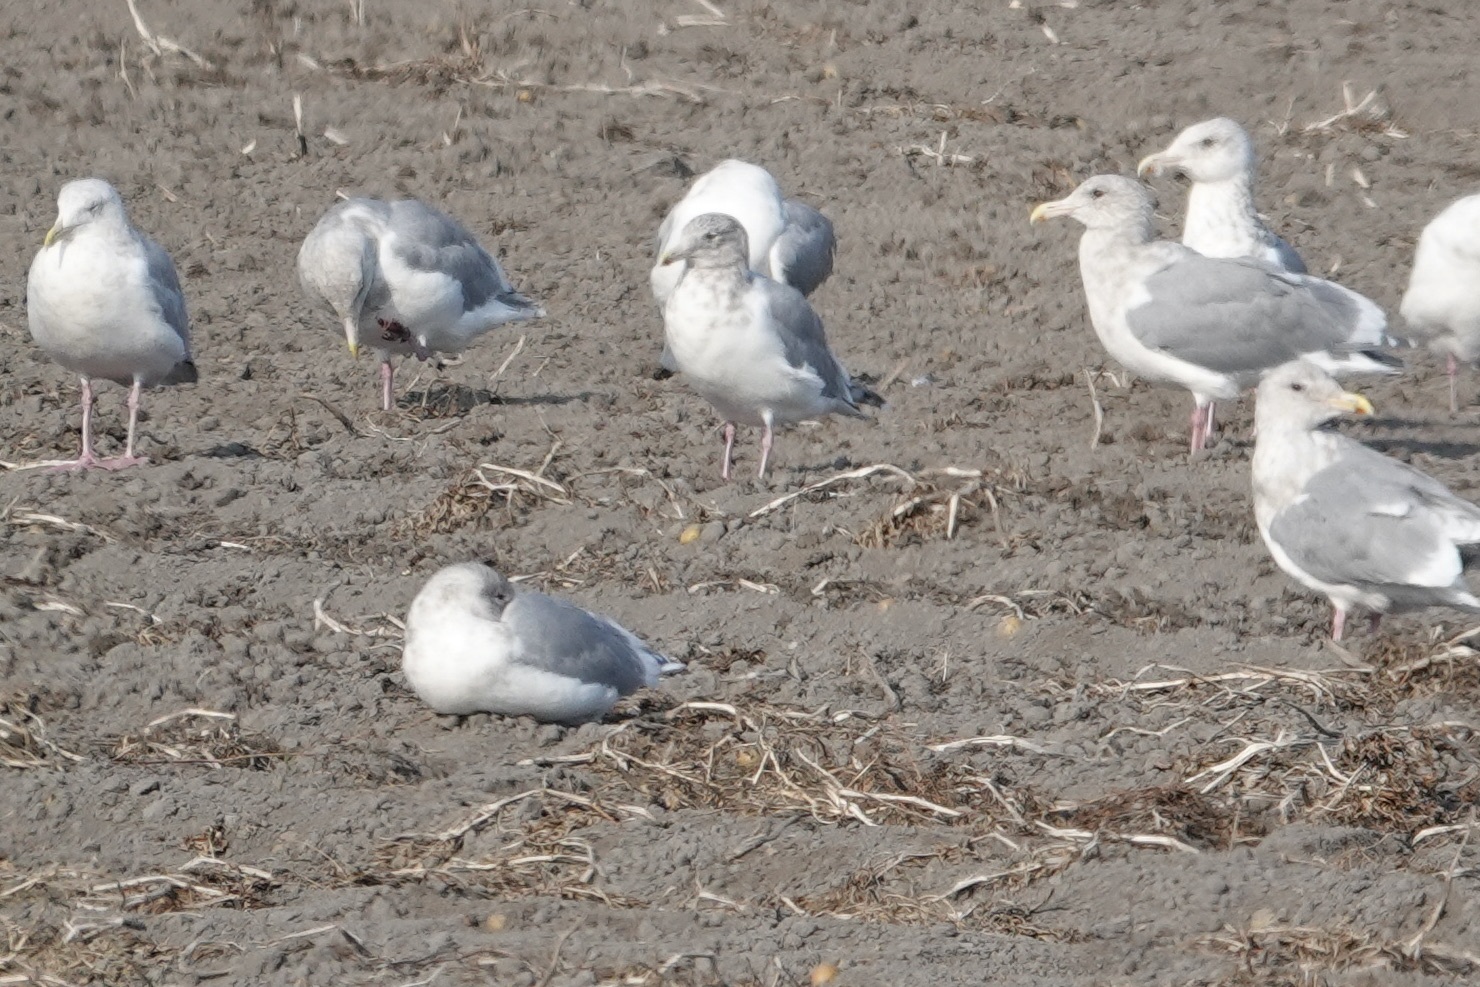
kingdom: Animalia
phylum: Chordata
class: Aves
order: Charadriiformes
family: Laridae
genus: Larus
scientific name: Larus glaucescens
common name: Glaucous-winged gull
